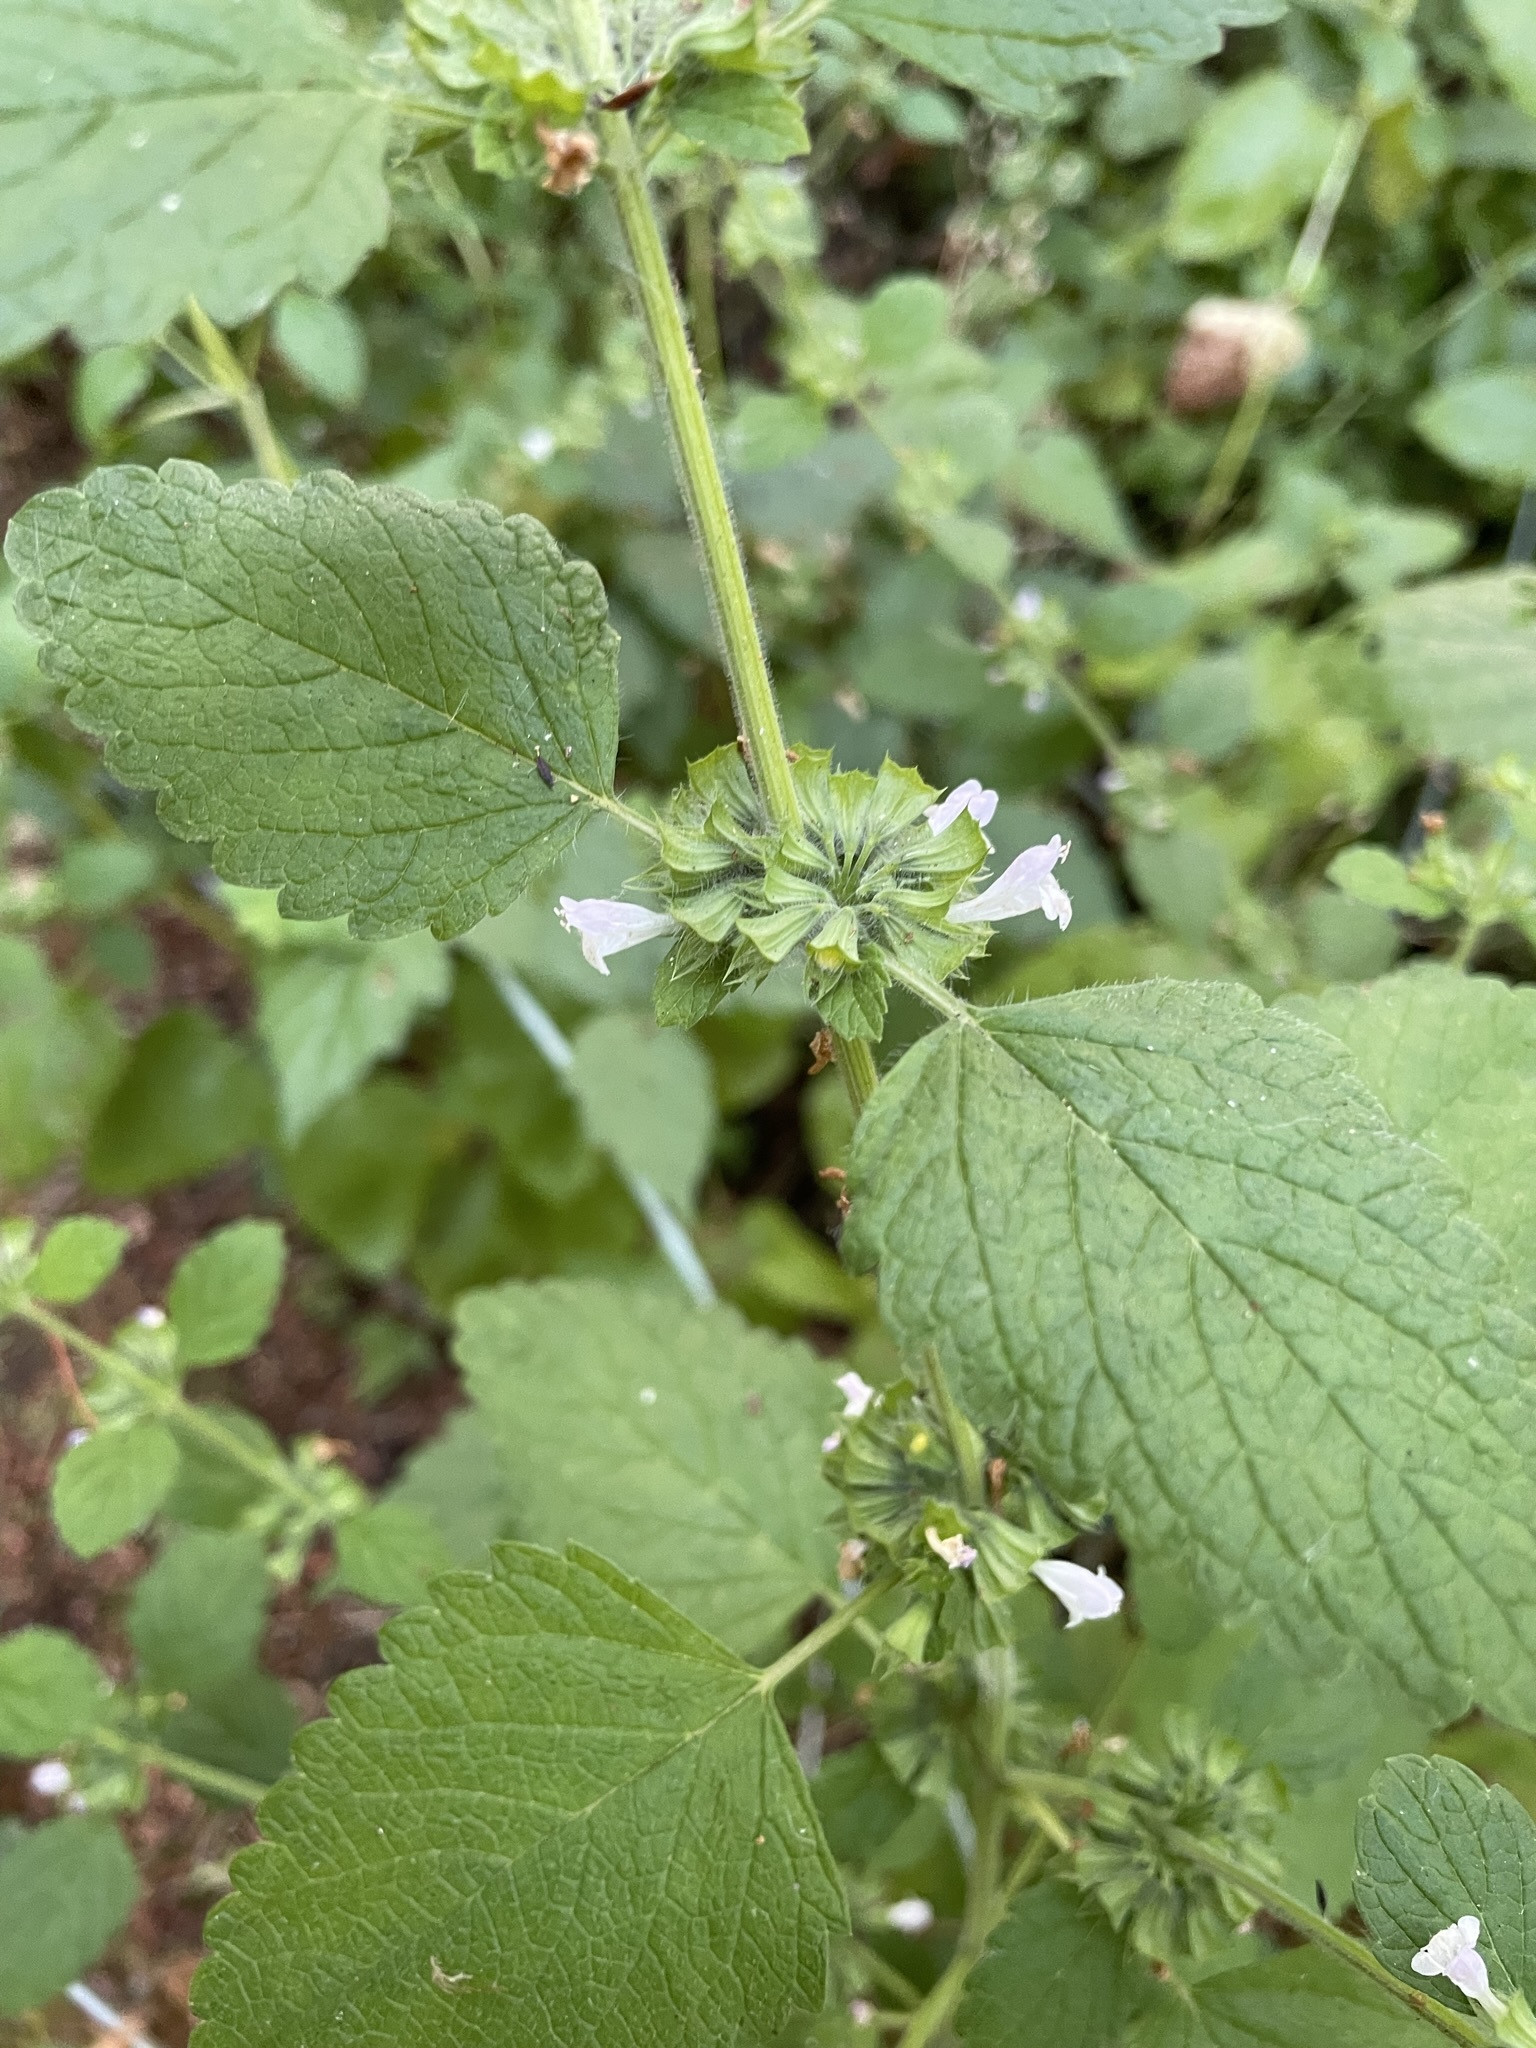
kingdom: Plantae
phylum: Tracheophyta
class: Magnoliopsida
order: Lamiales
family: Lamiaceae
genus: Melissa
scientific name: Melissa officinalis
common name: Balm
